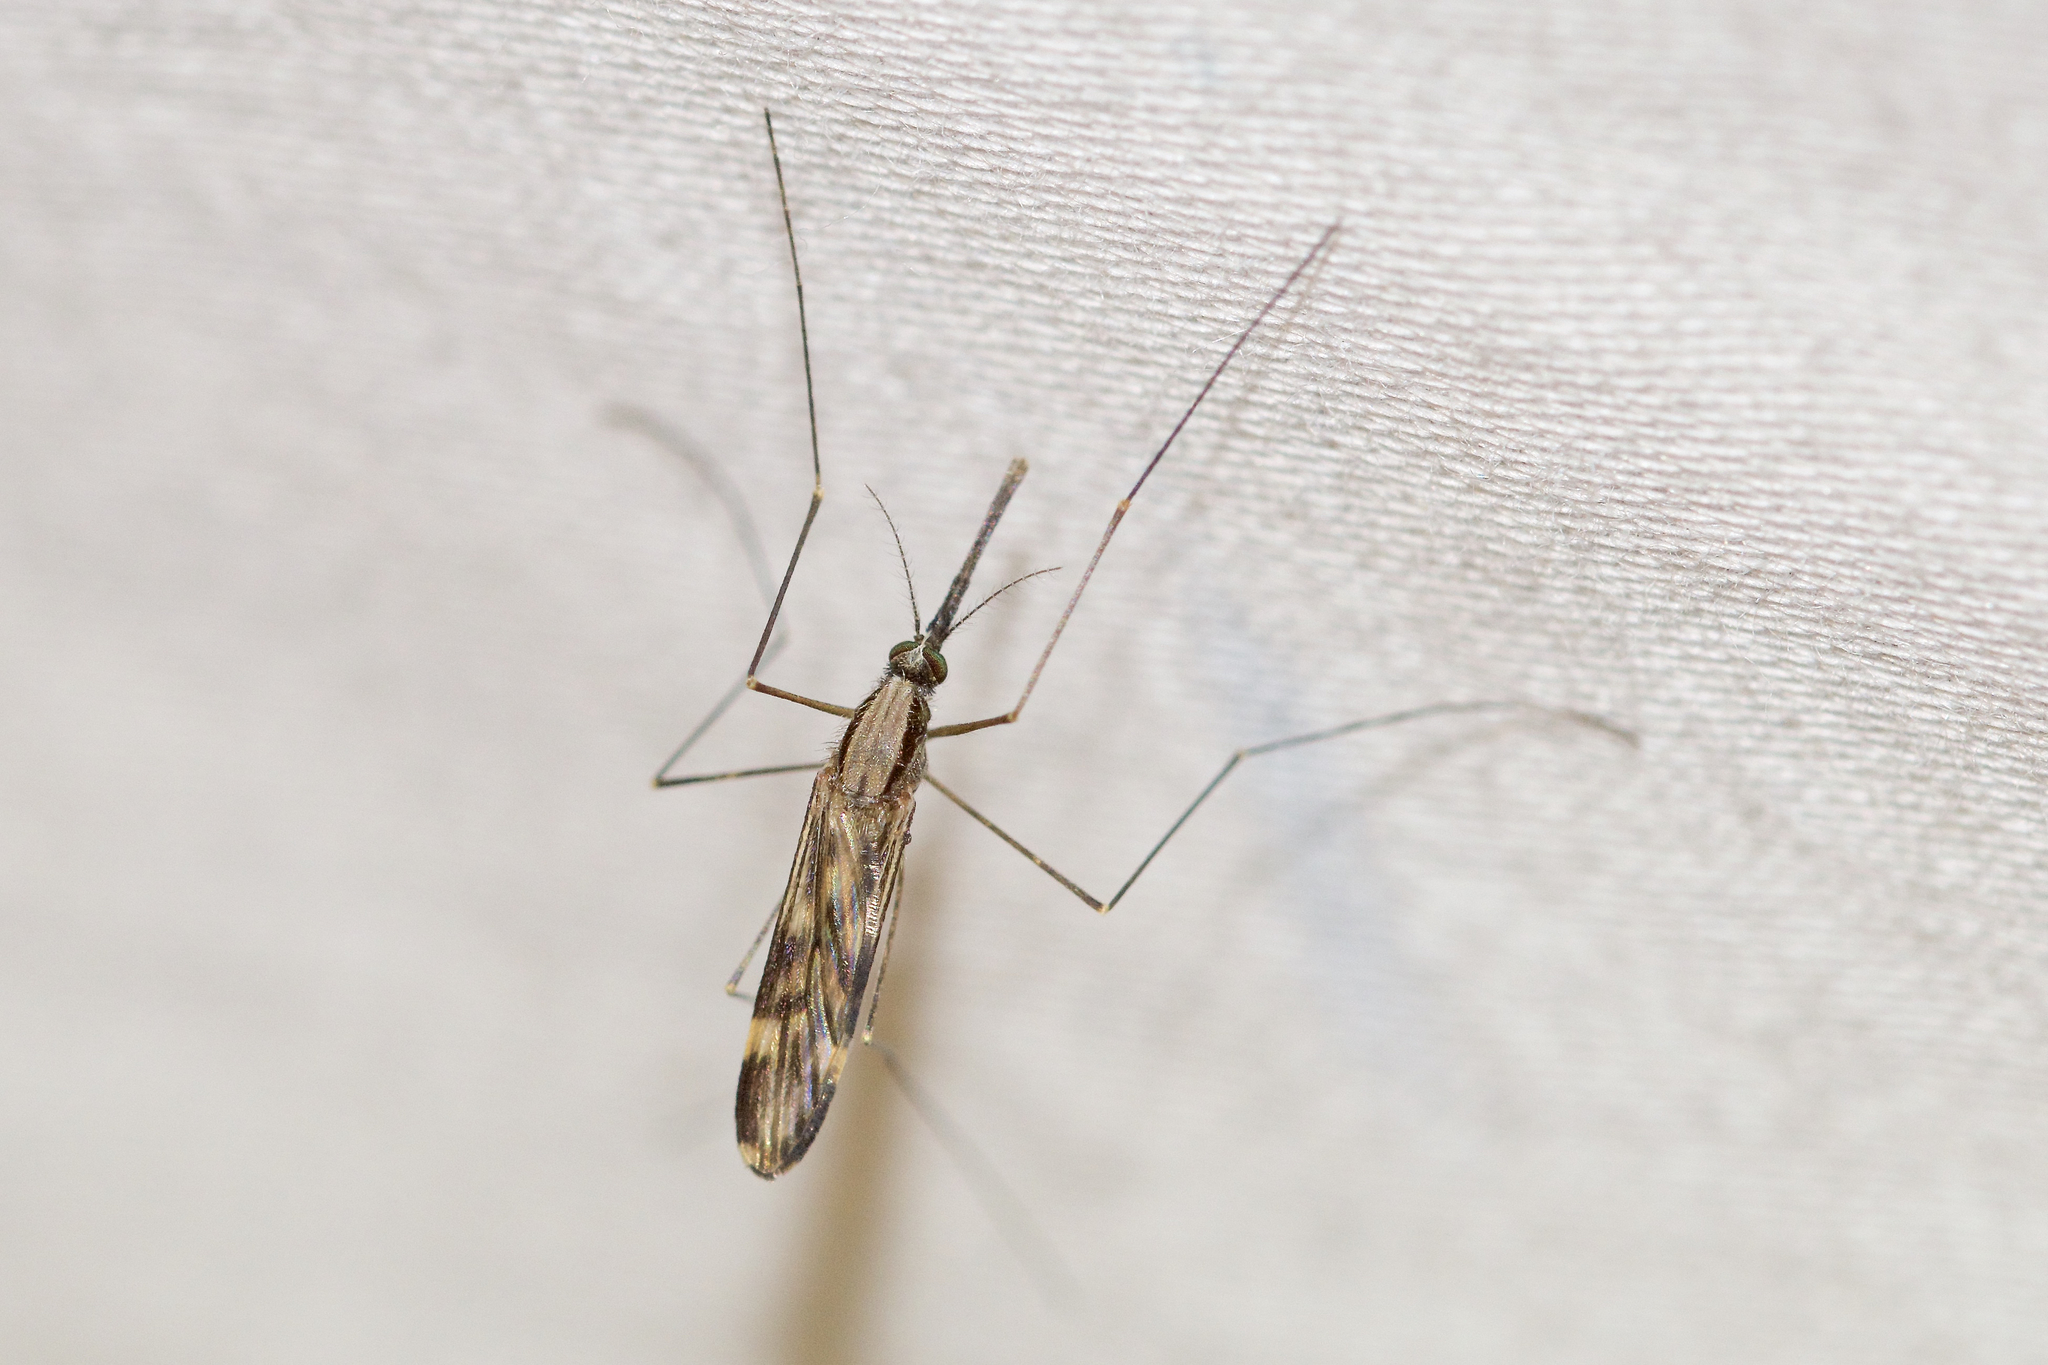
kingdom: Animalia
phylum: Arthropoda
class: Insecta
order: Diptera
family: Culicidae
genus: Anopheles
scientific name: Anopheles punctipennis
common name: Woodland malaria mosquito
